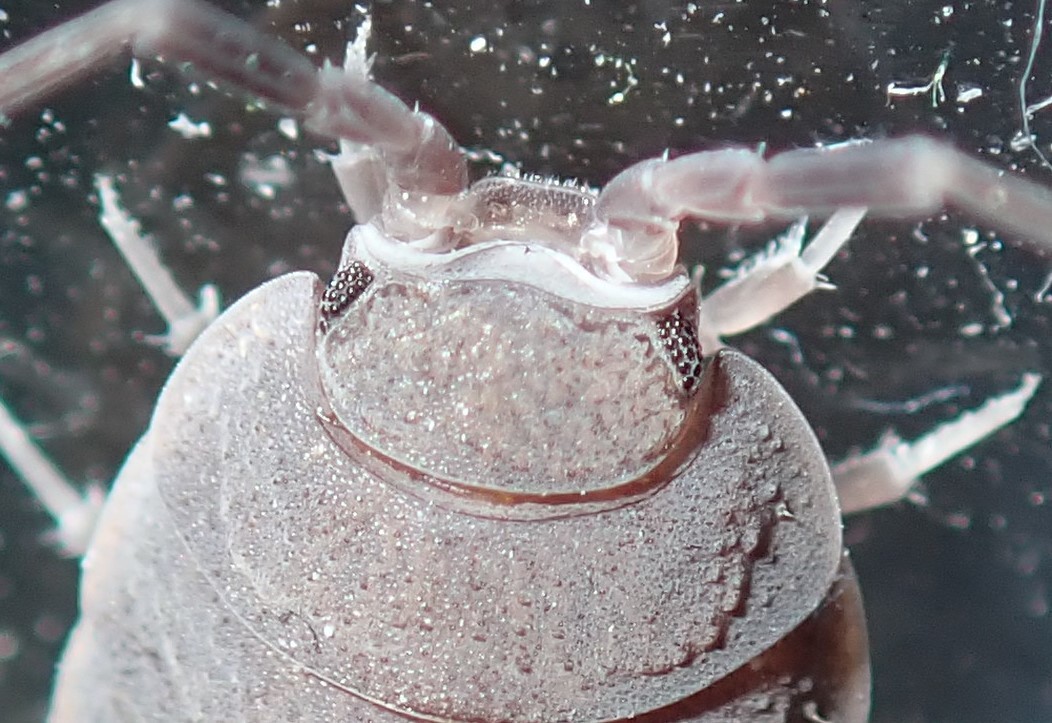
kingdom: Animalia
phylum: Arthropoda
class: Malacostraca
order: Isopoda
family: Porcellionidae
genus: Porcellionides
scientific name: Porcellionides pruinosus
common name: Plum woodlouse
